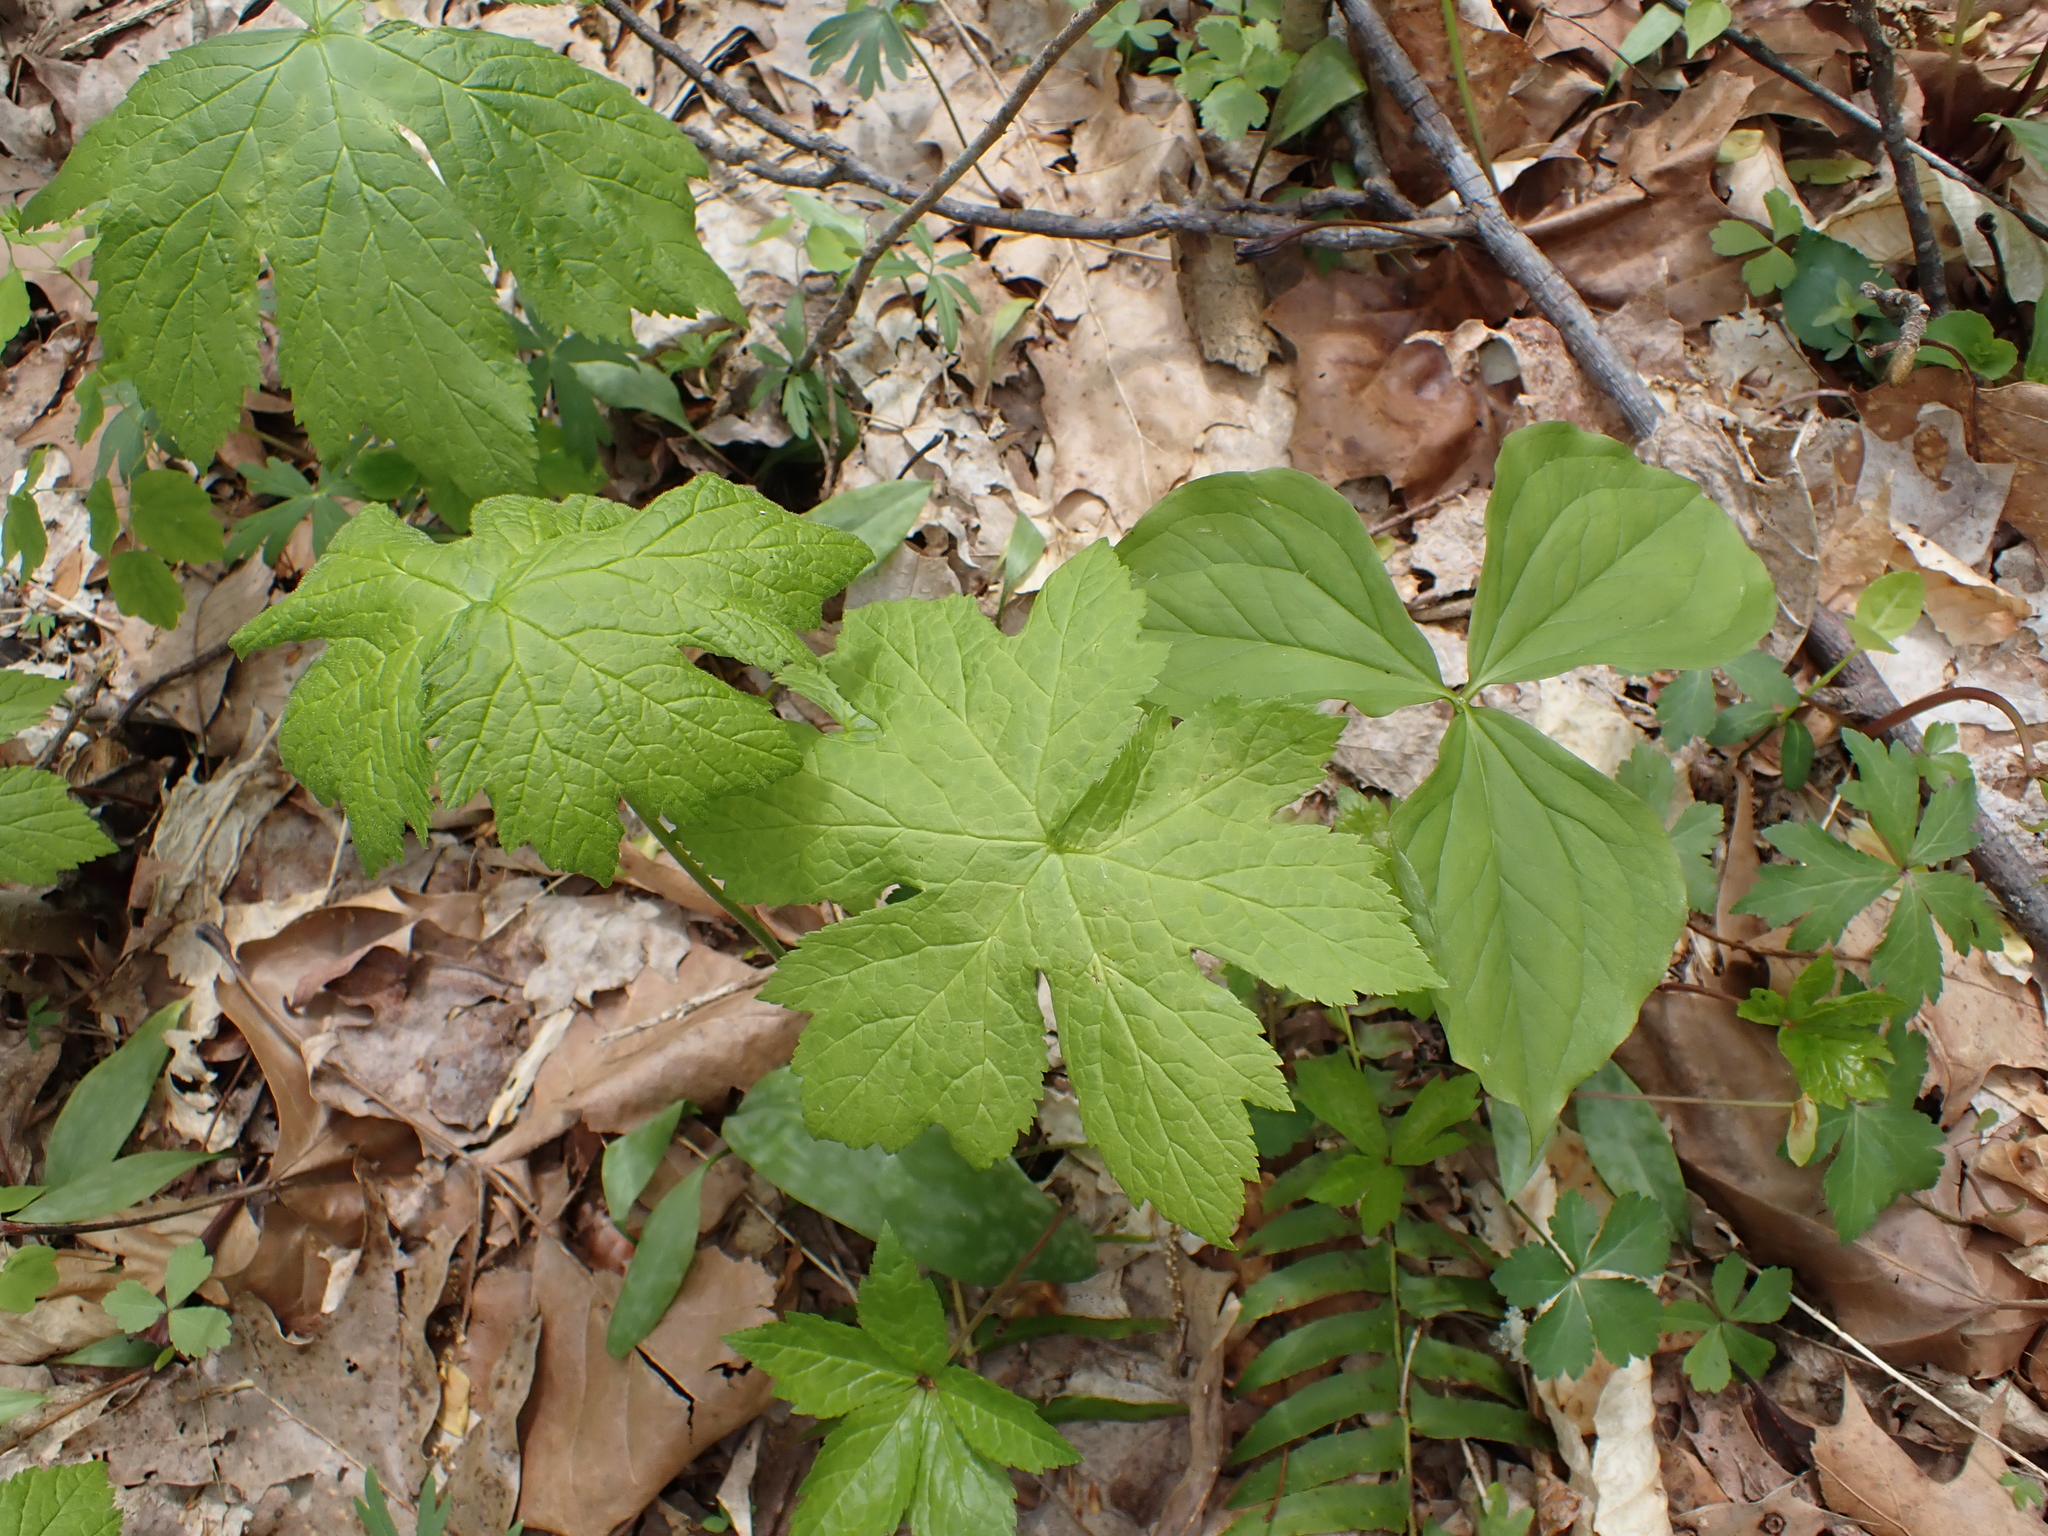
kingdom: Plantae
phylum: Tracheophyta
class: Magnoliopsida
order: Ranunculales
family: Ranunculaceae
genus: Hydrastis
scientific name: Hydrastis canadensis
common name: Goldenseal
